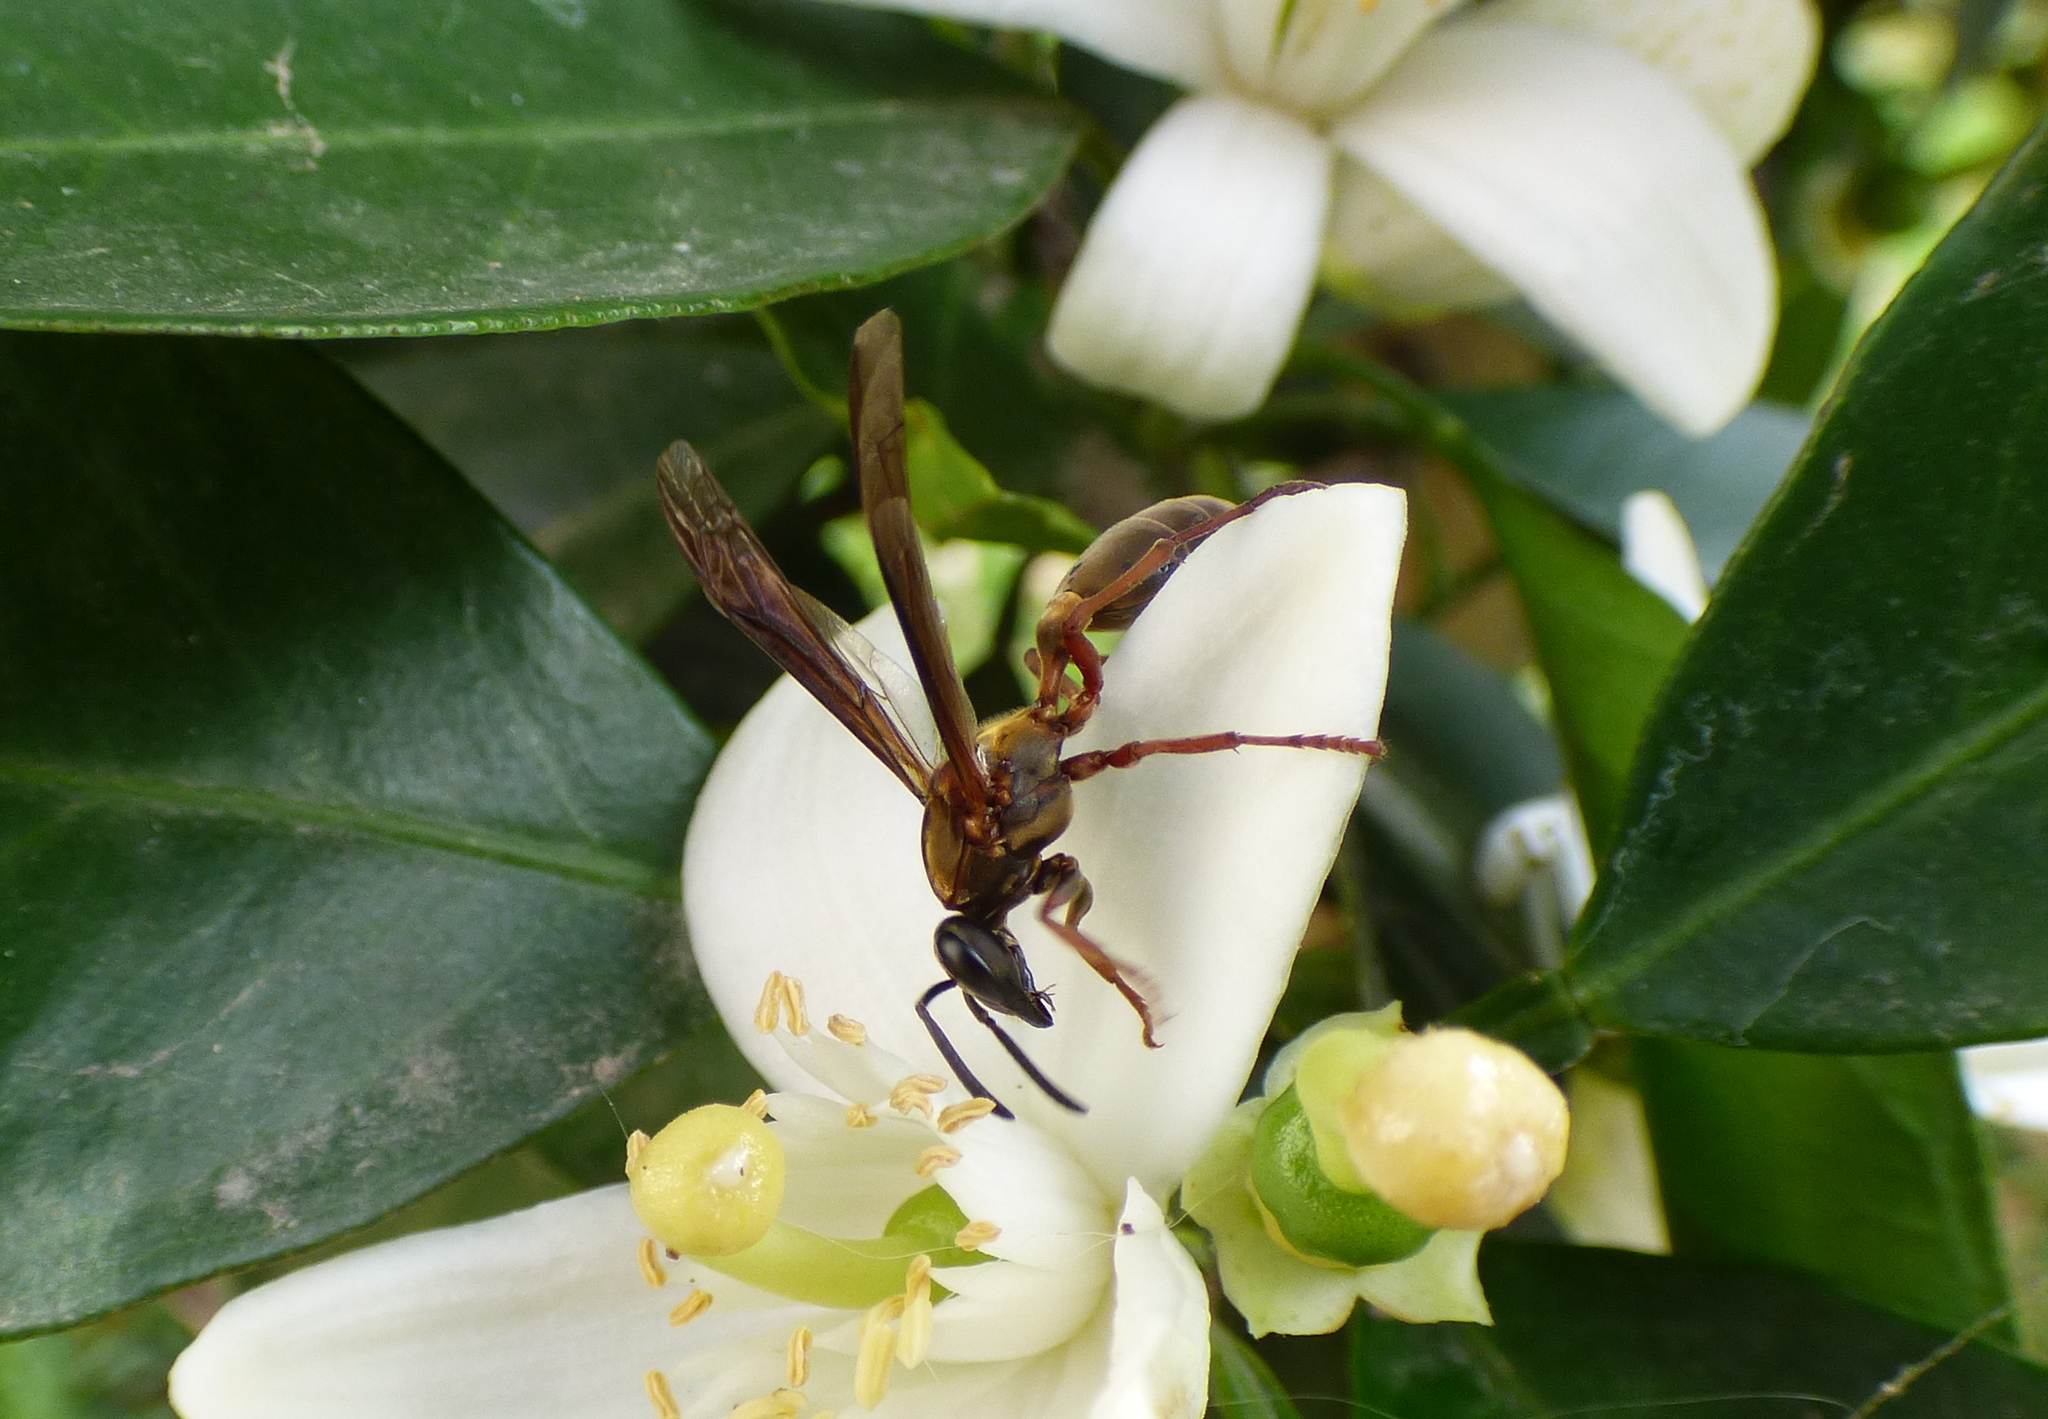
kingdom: Animalia
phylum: Arthropoda
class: Insecta
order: Hymenoptera
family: Eumenidae
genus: Polybia
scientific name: Polybia sericea
